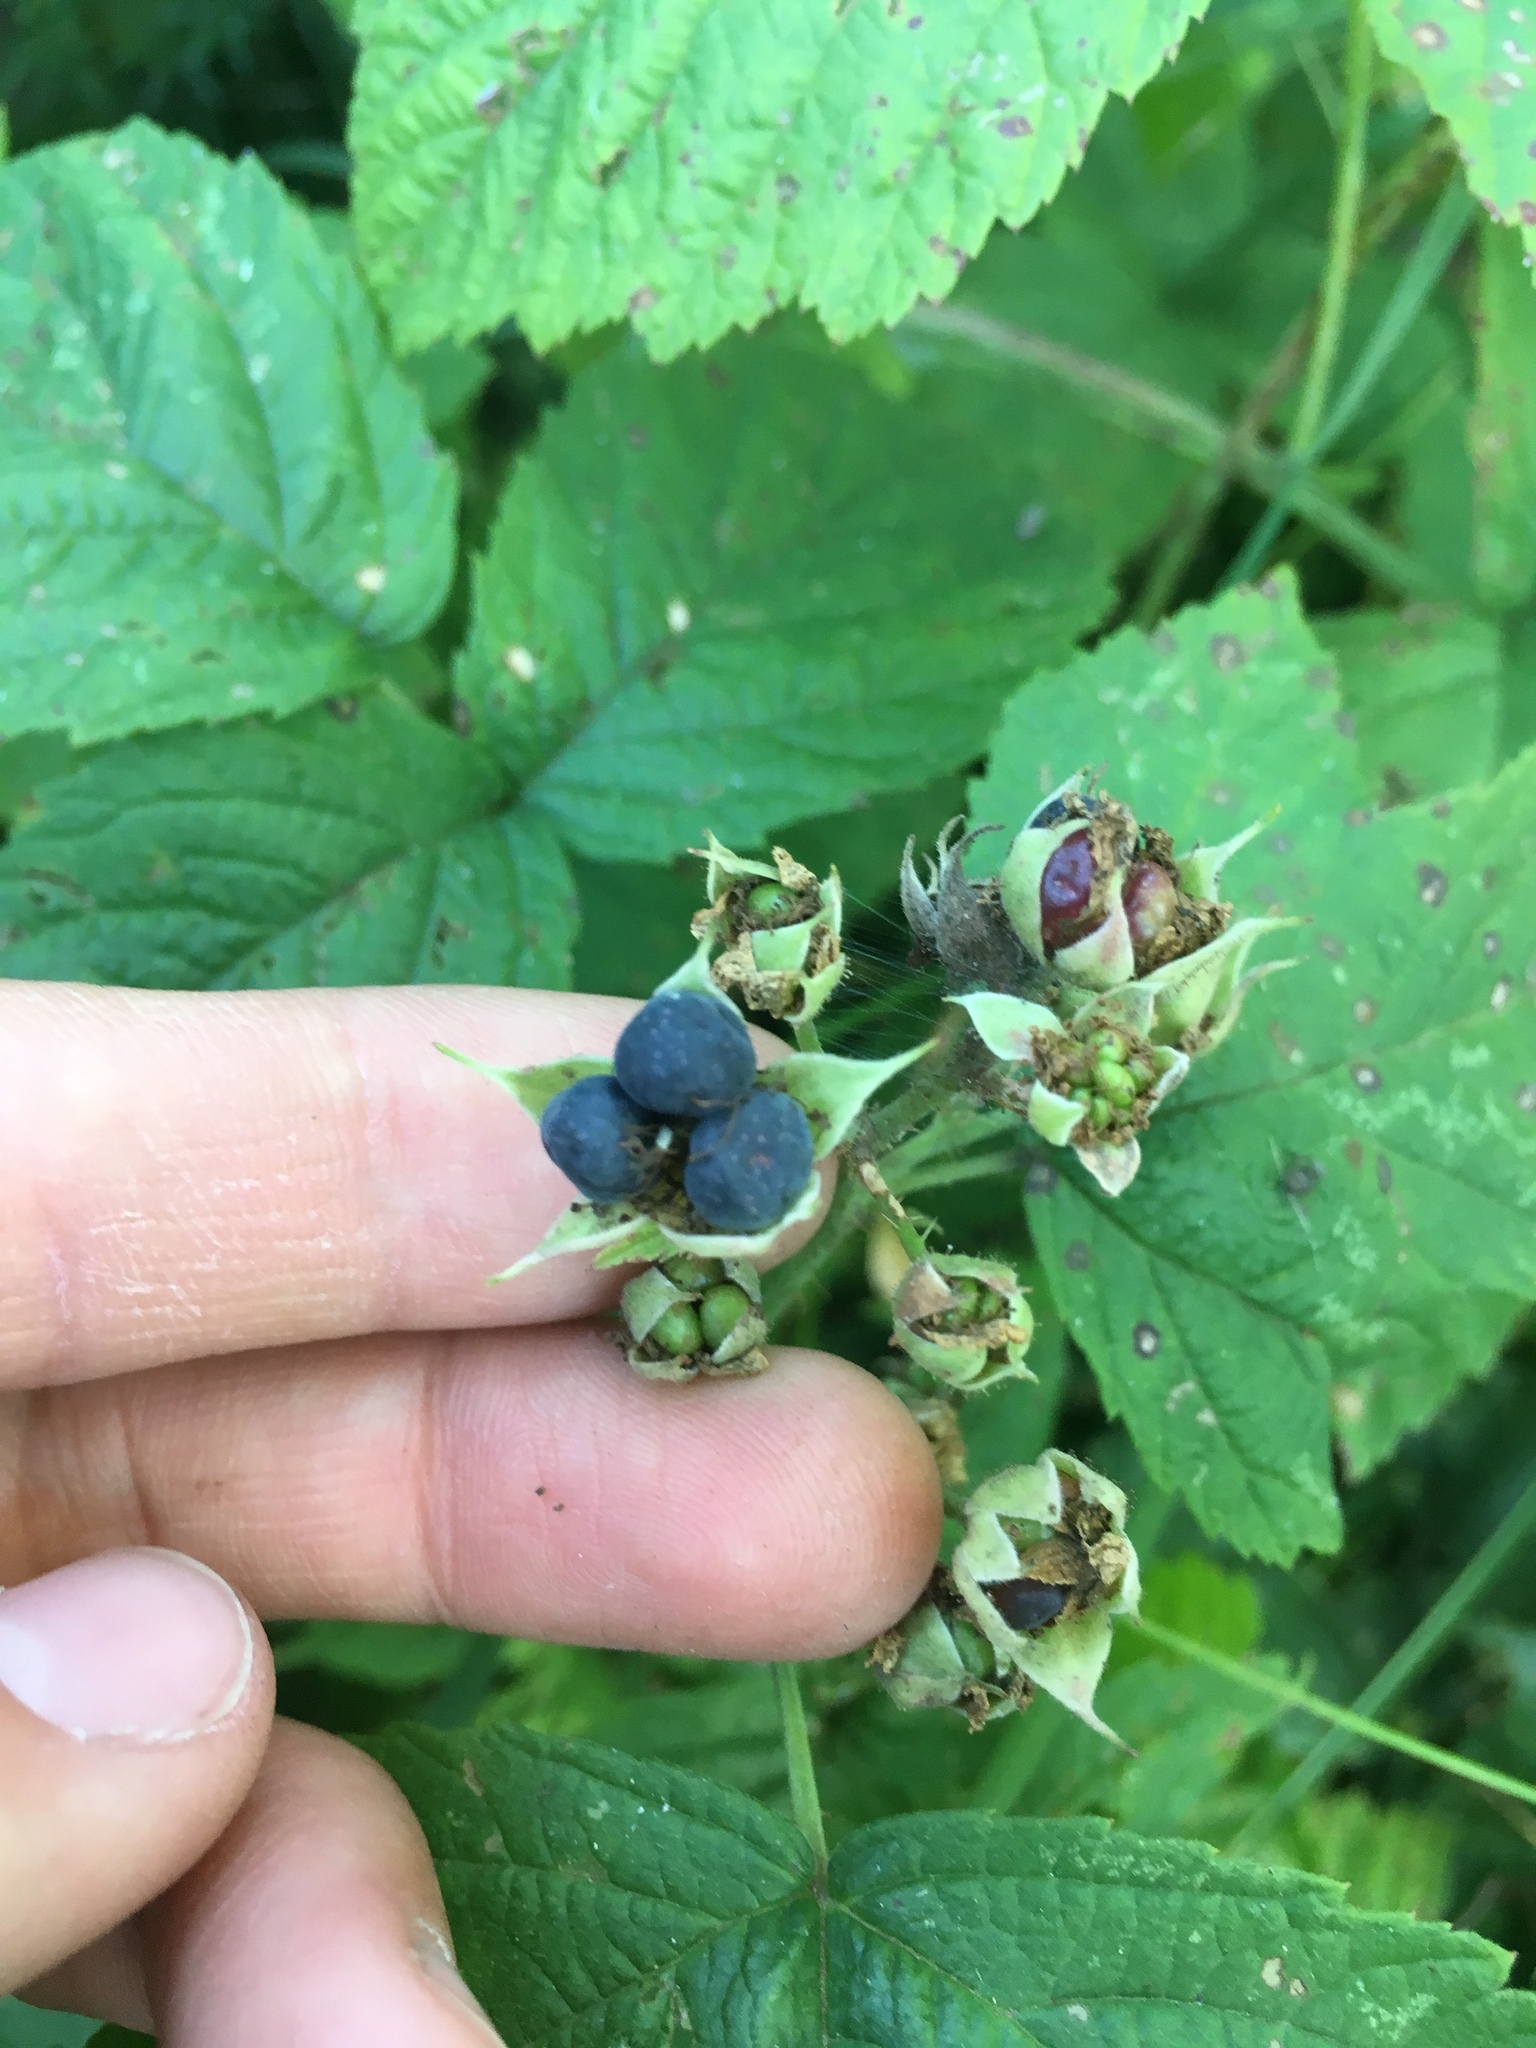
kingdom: Plantae
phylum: Tracheophyta
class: Magnoliopsida
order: Rosales
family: Rosaceae
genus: Rubus
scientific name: Rubus caesius
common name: Dewberry
